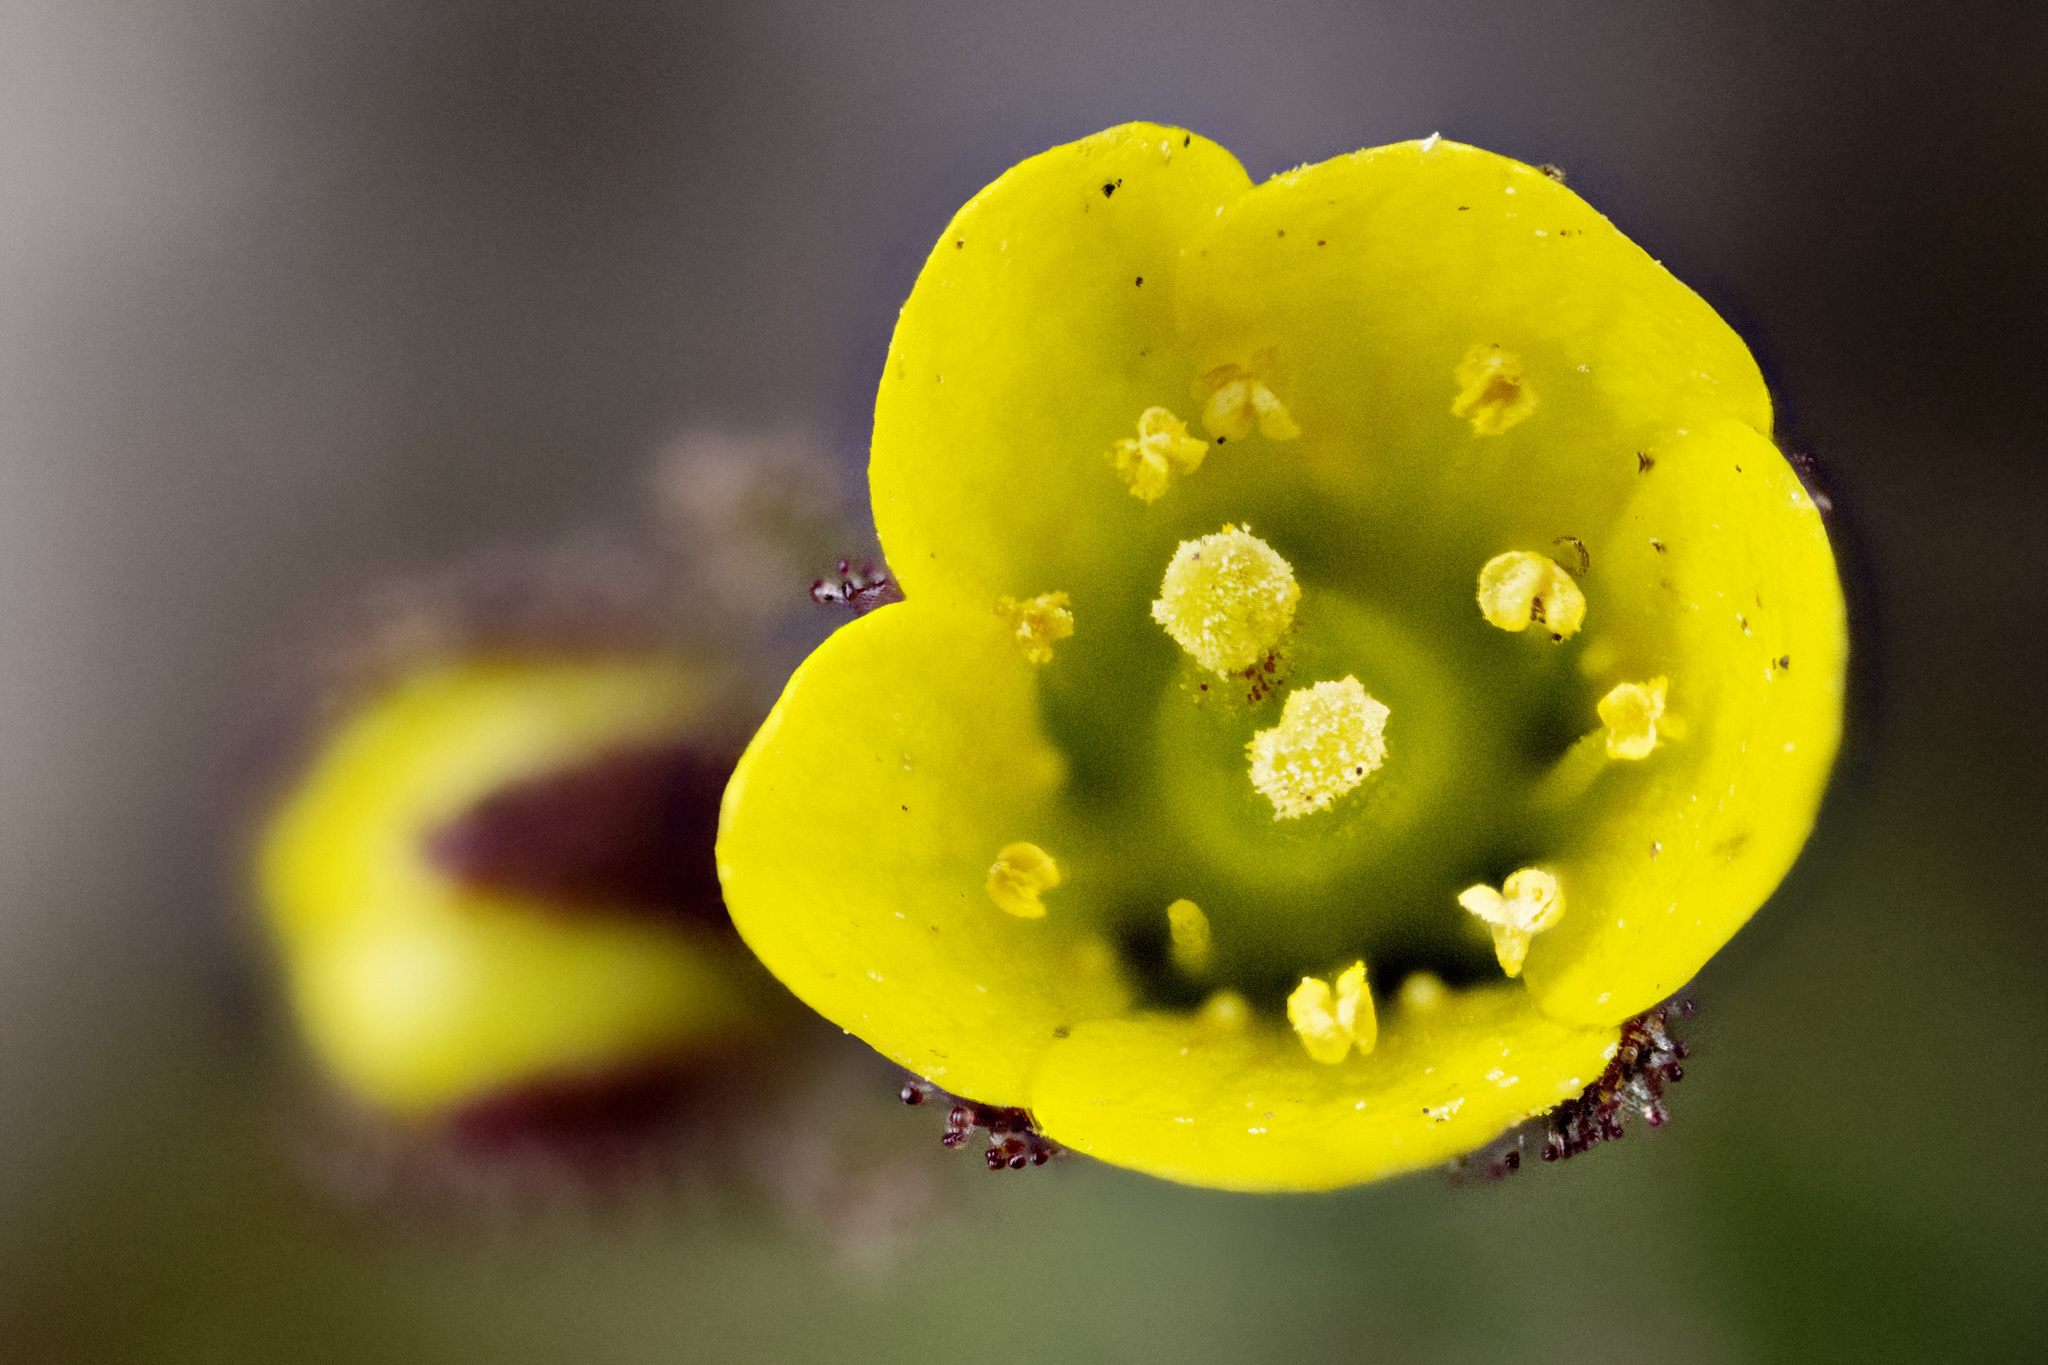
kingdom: Plantae
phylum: Tracheophyta
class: Magnoliopsida
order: Saxifragales
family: Saxifragaceae
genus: Saxifraga
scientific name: Saxifraga flagellaris
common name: Spider saxifrage
